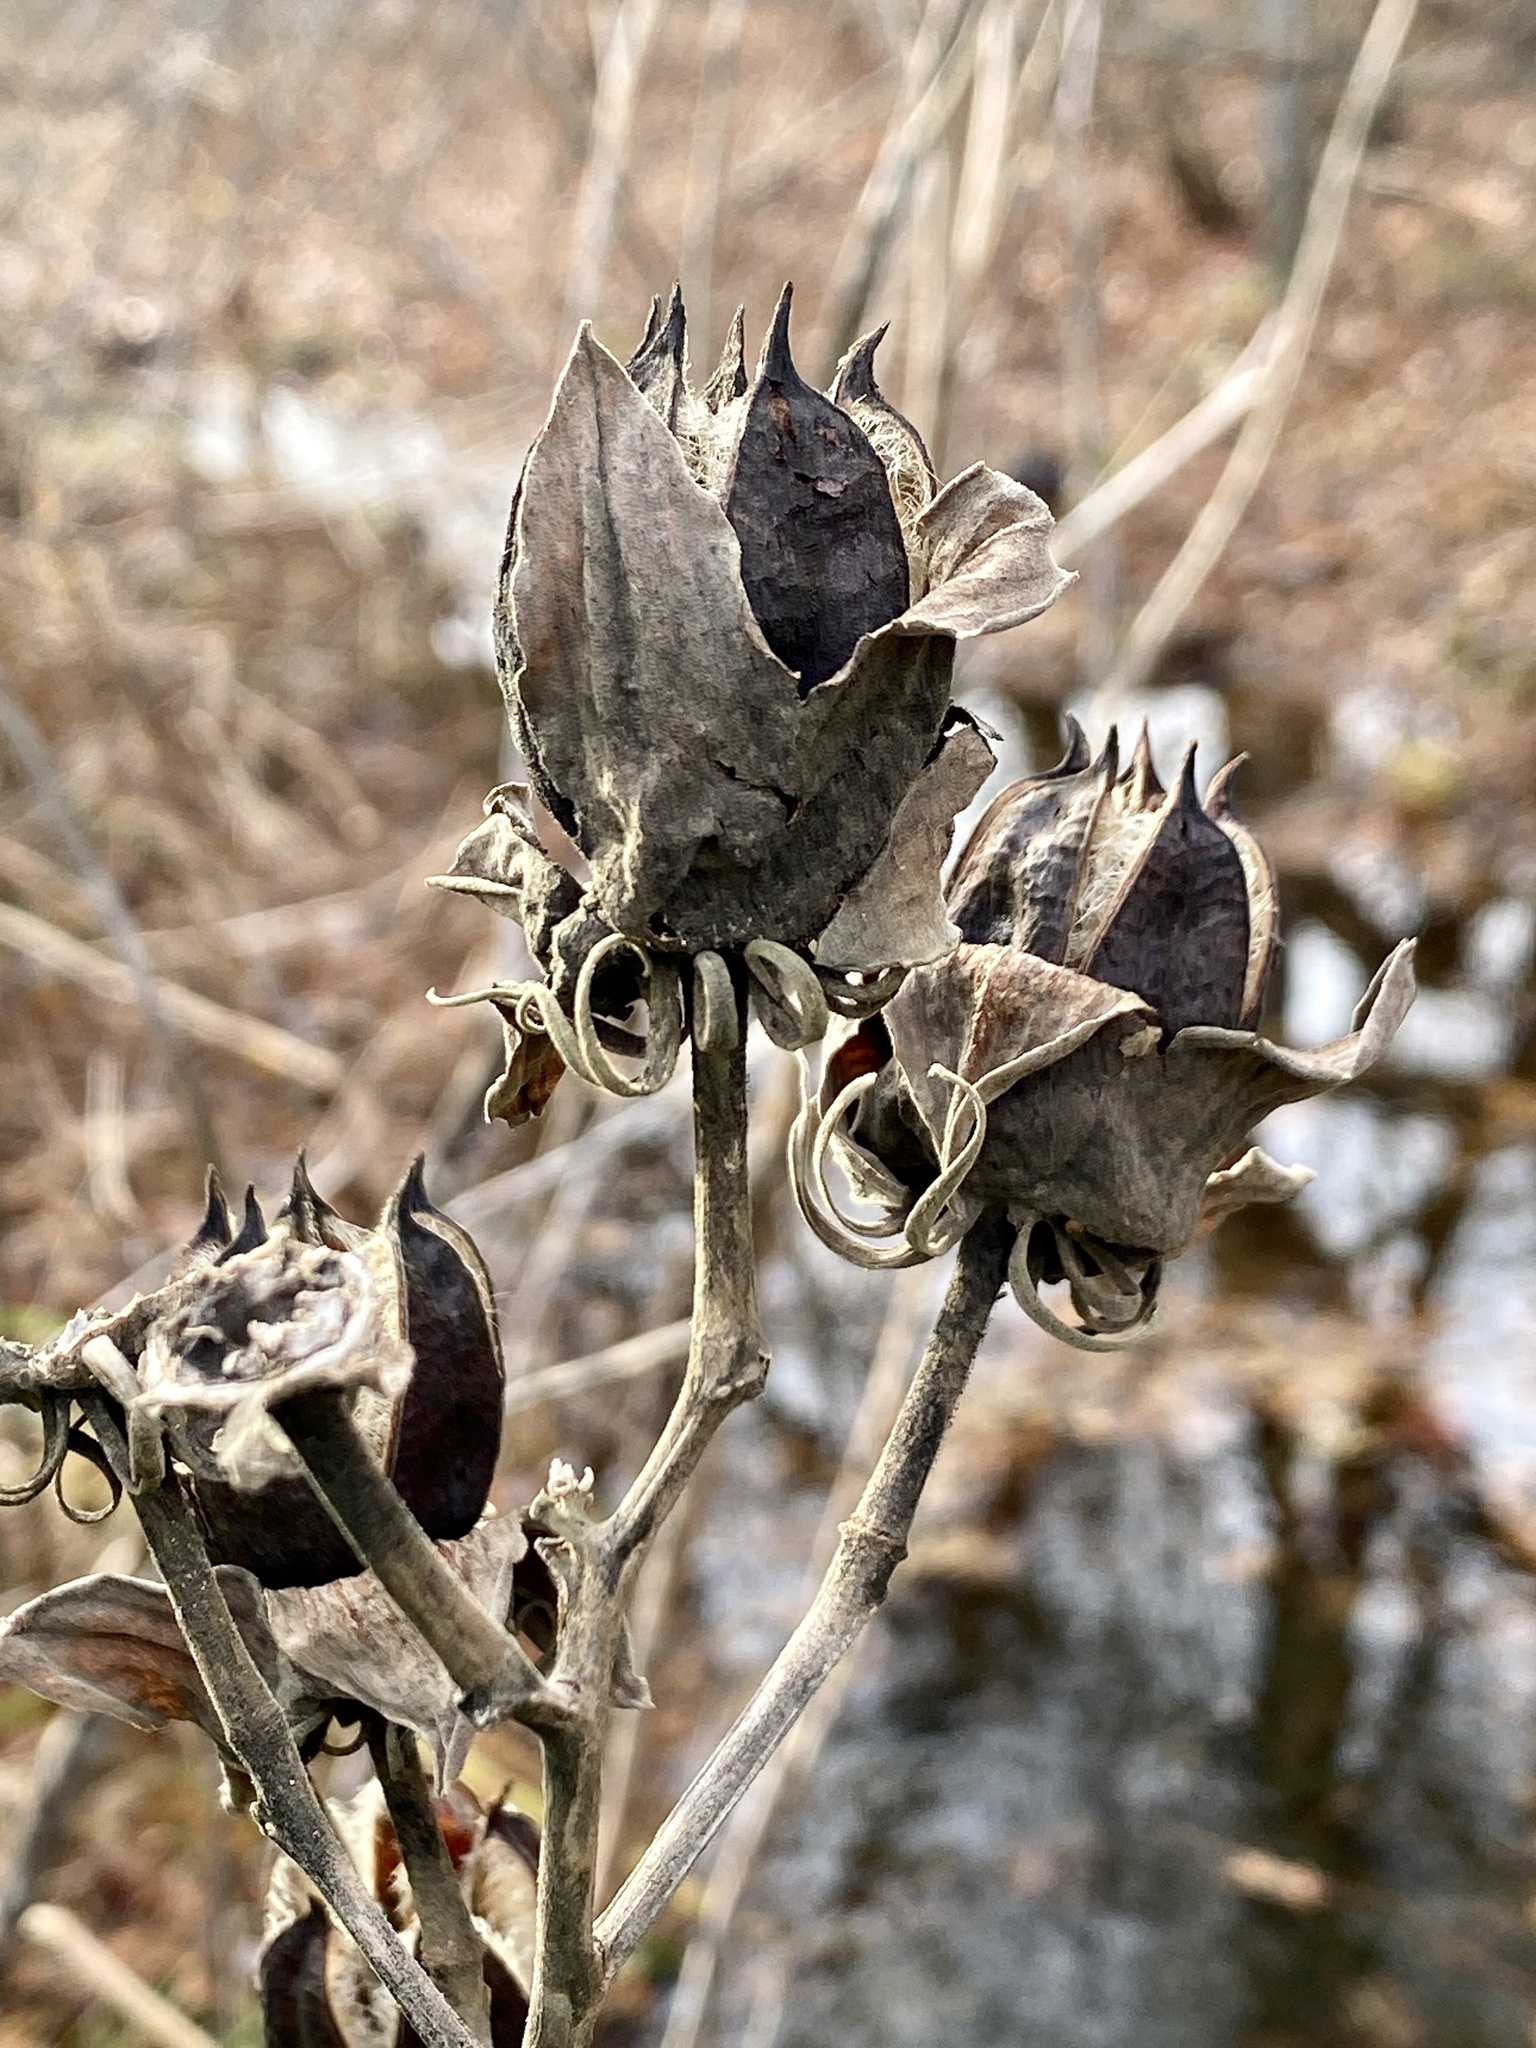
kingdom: Plantae
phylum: Tracheophyta
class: Magnoliopsida
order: Malvales
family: Malvaceae
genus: Hibiscus
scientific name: Hibiscus moscheutos
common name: Common rose-mallow
